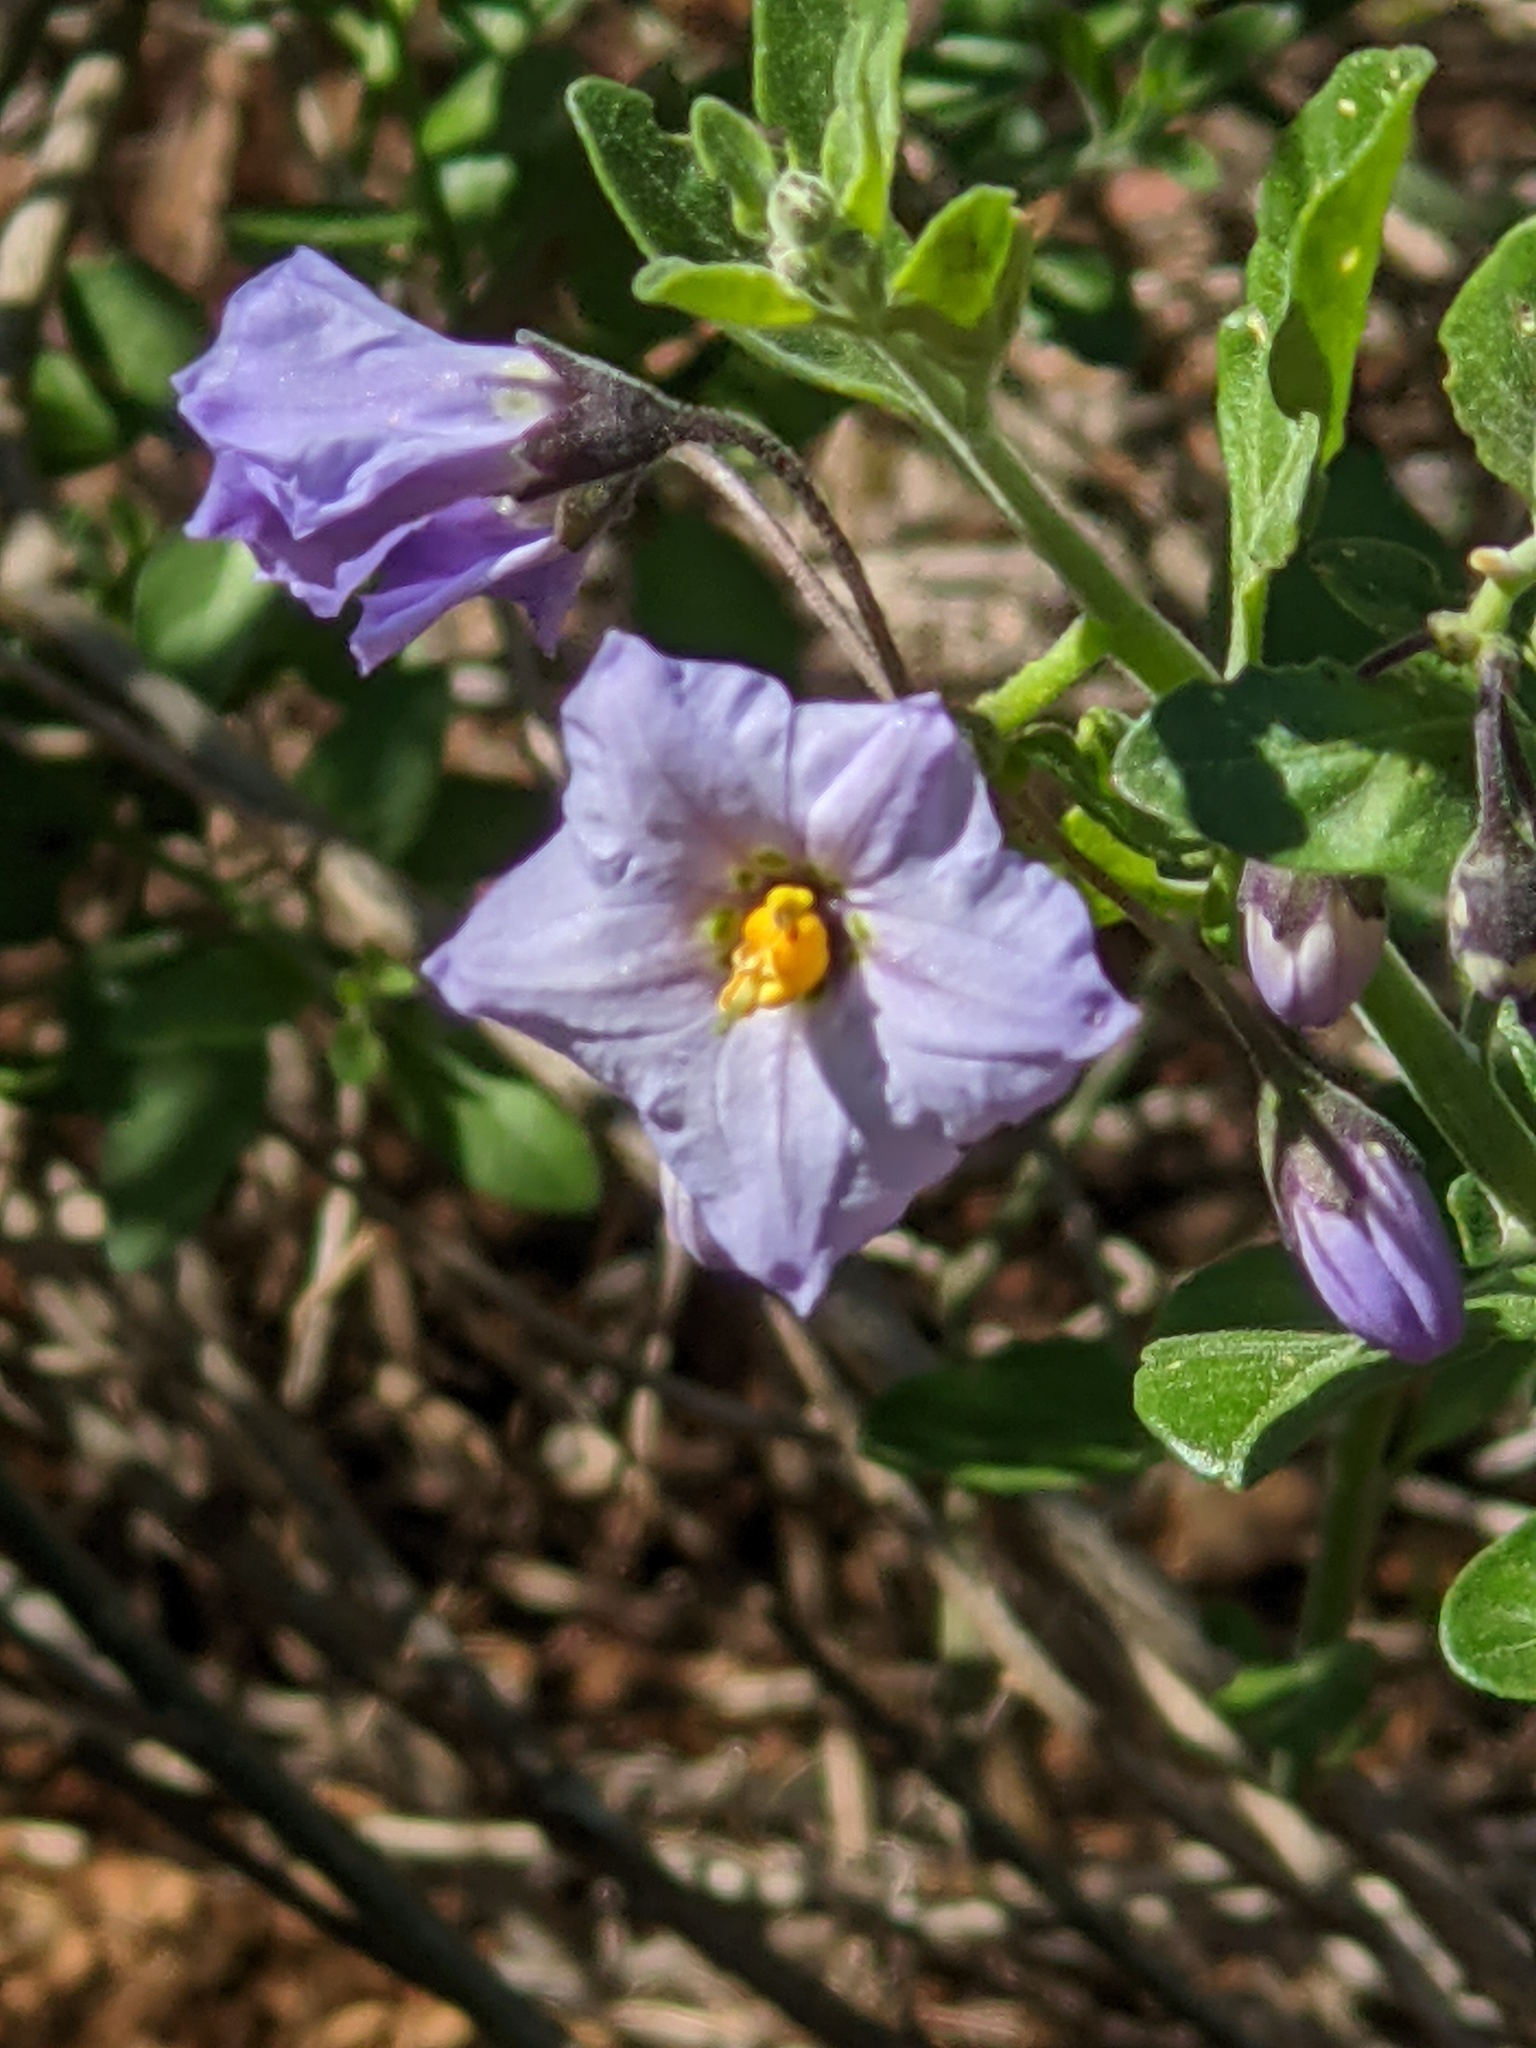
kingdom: Plantae
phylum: Tracheophyta
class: Magnoliopsida
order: Solanales
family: Solanaceae
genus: Solanum
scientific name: Solanum umbelliferum
